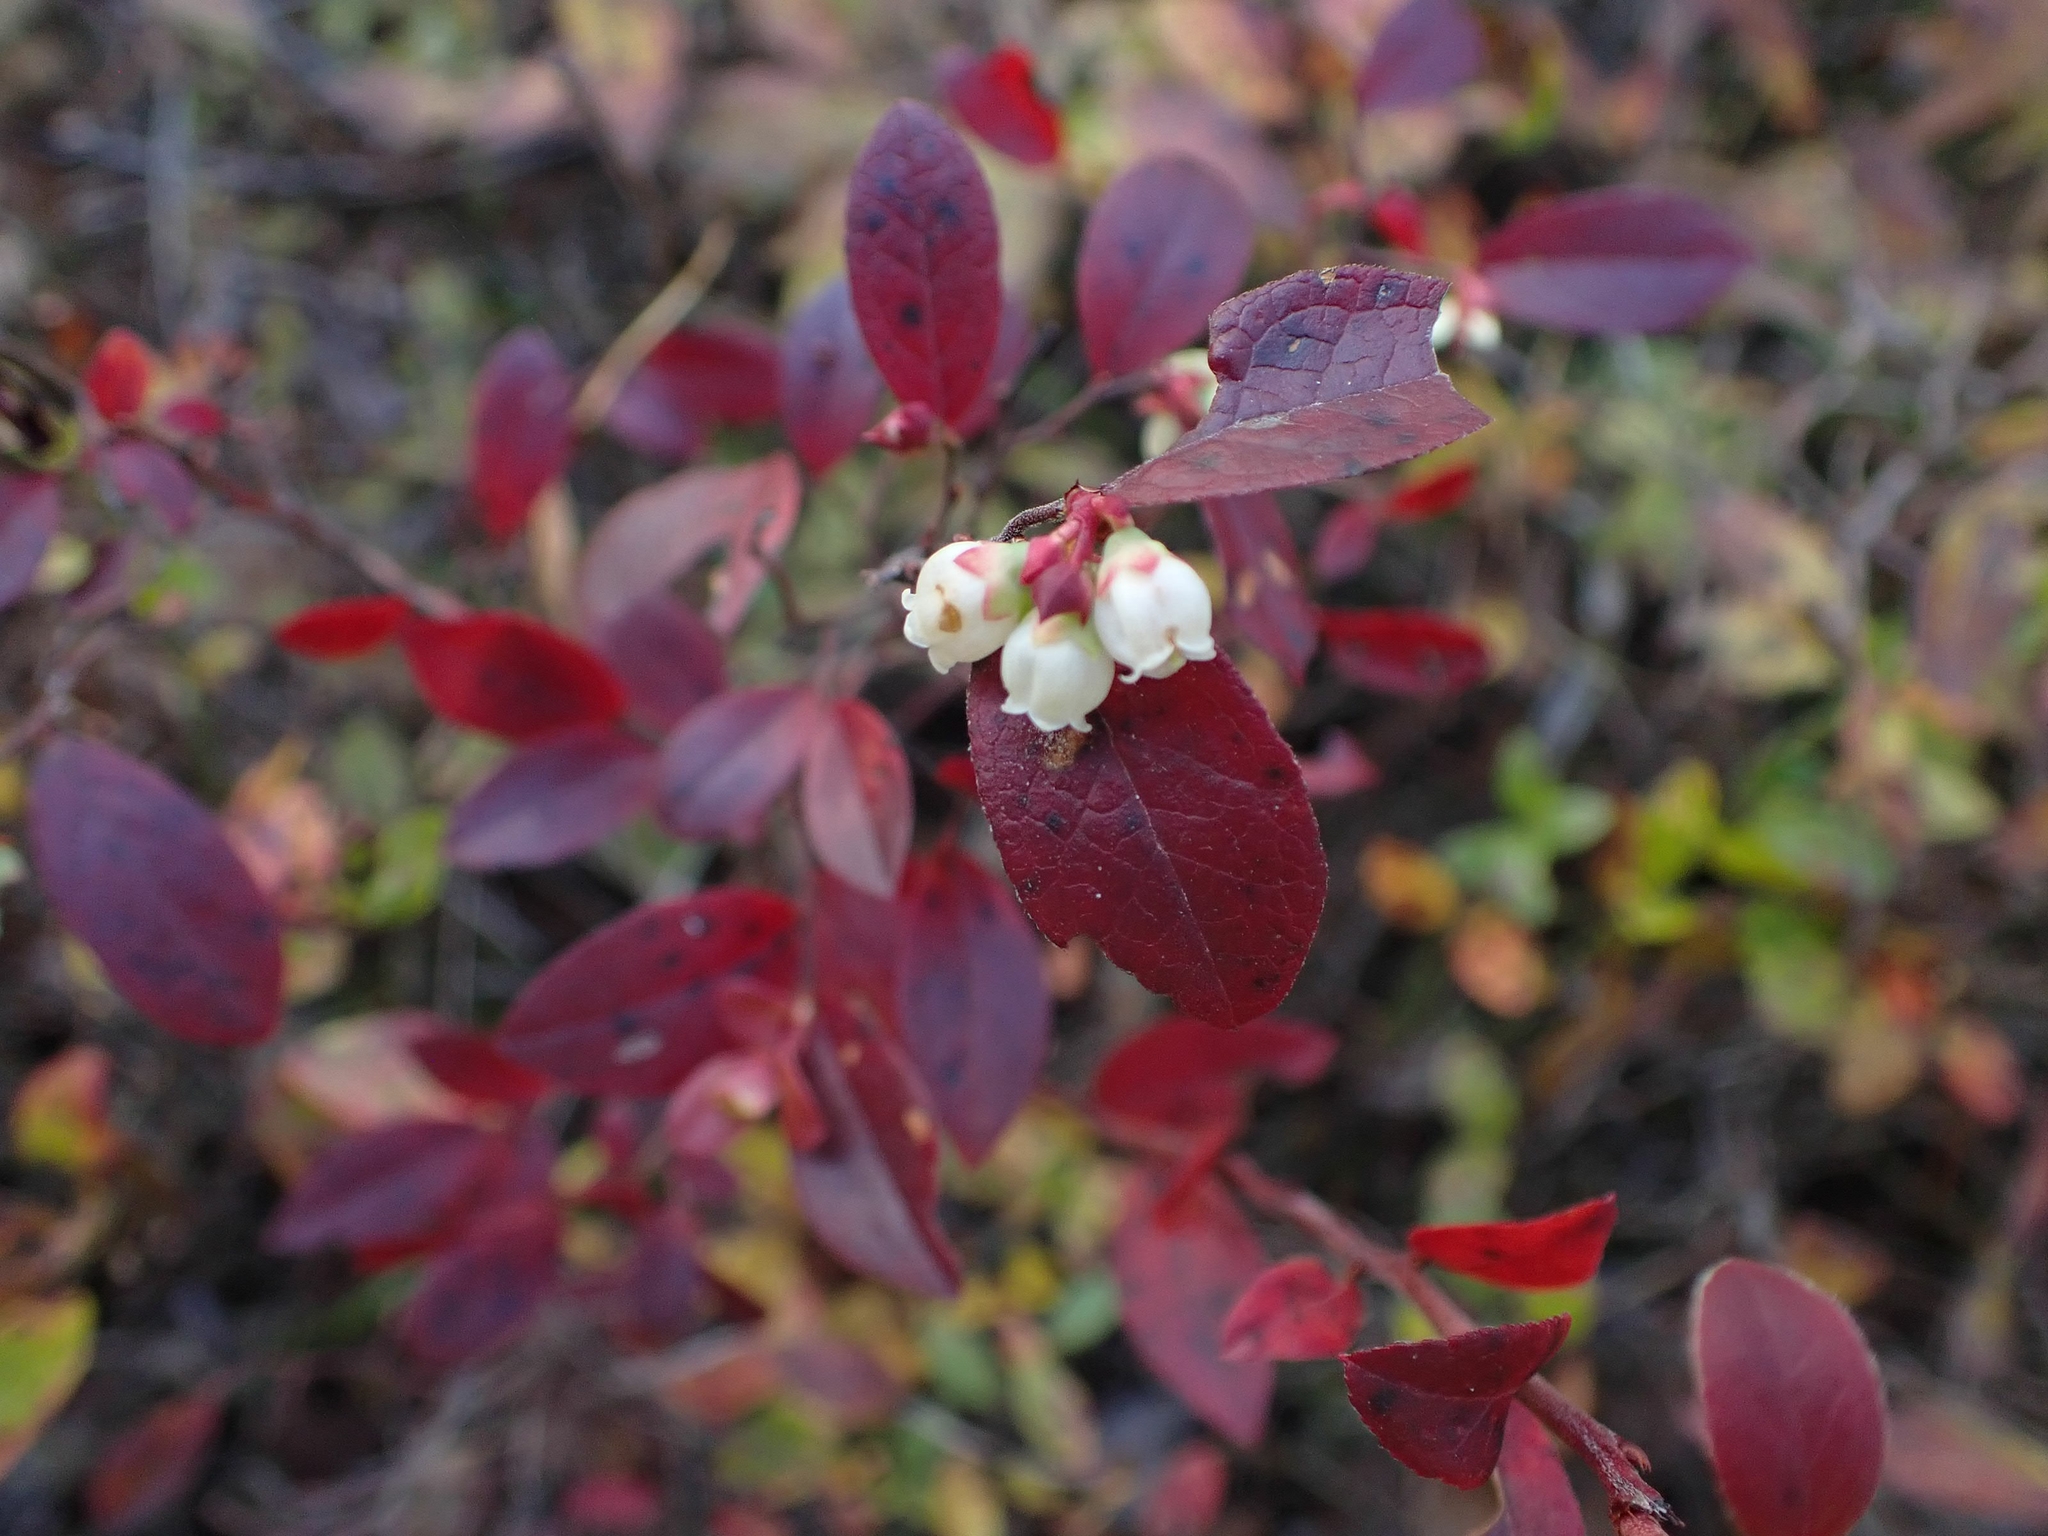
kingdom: Plantae
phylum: Tracheophyta
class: Magnoliopsida
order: Ericales
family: Ericaceae
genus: Vaccinium
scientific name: Vaccinium angustifolium
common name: Early lowbush blueberry
